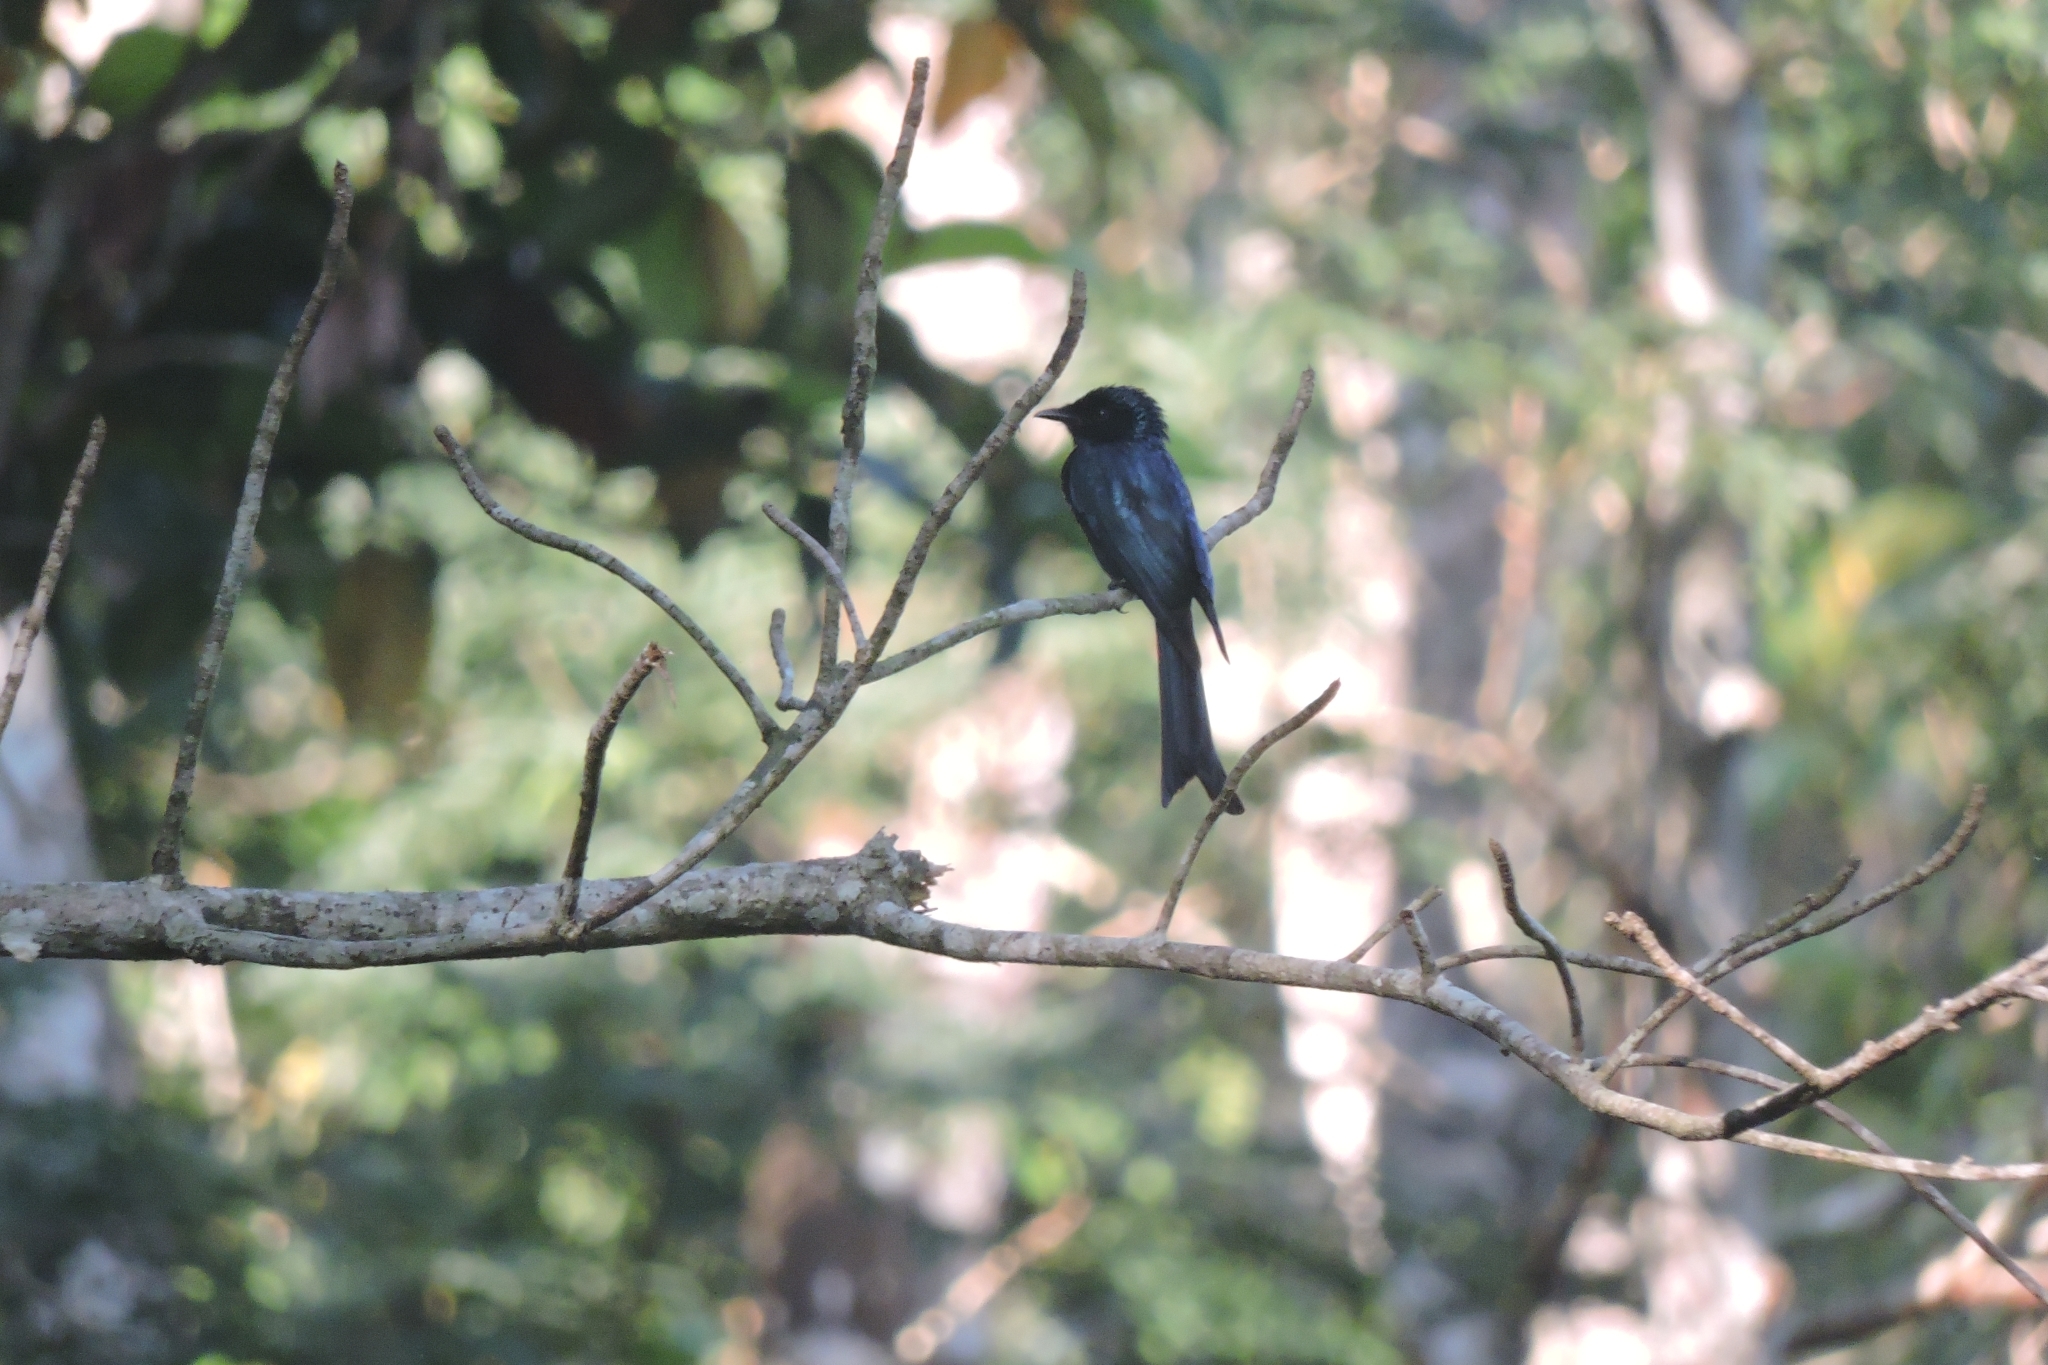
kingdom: Animalia
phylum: Chordata
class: Aves
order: Passeriformes
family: Dicruridae
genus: Dicrurus
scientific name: Dicrurus aeneus
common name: Bronzed drongo
